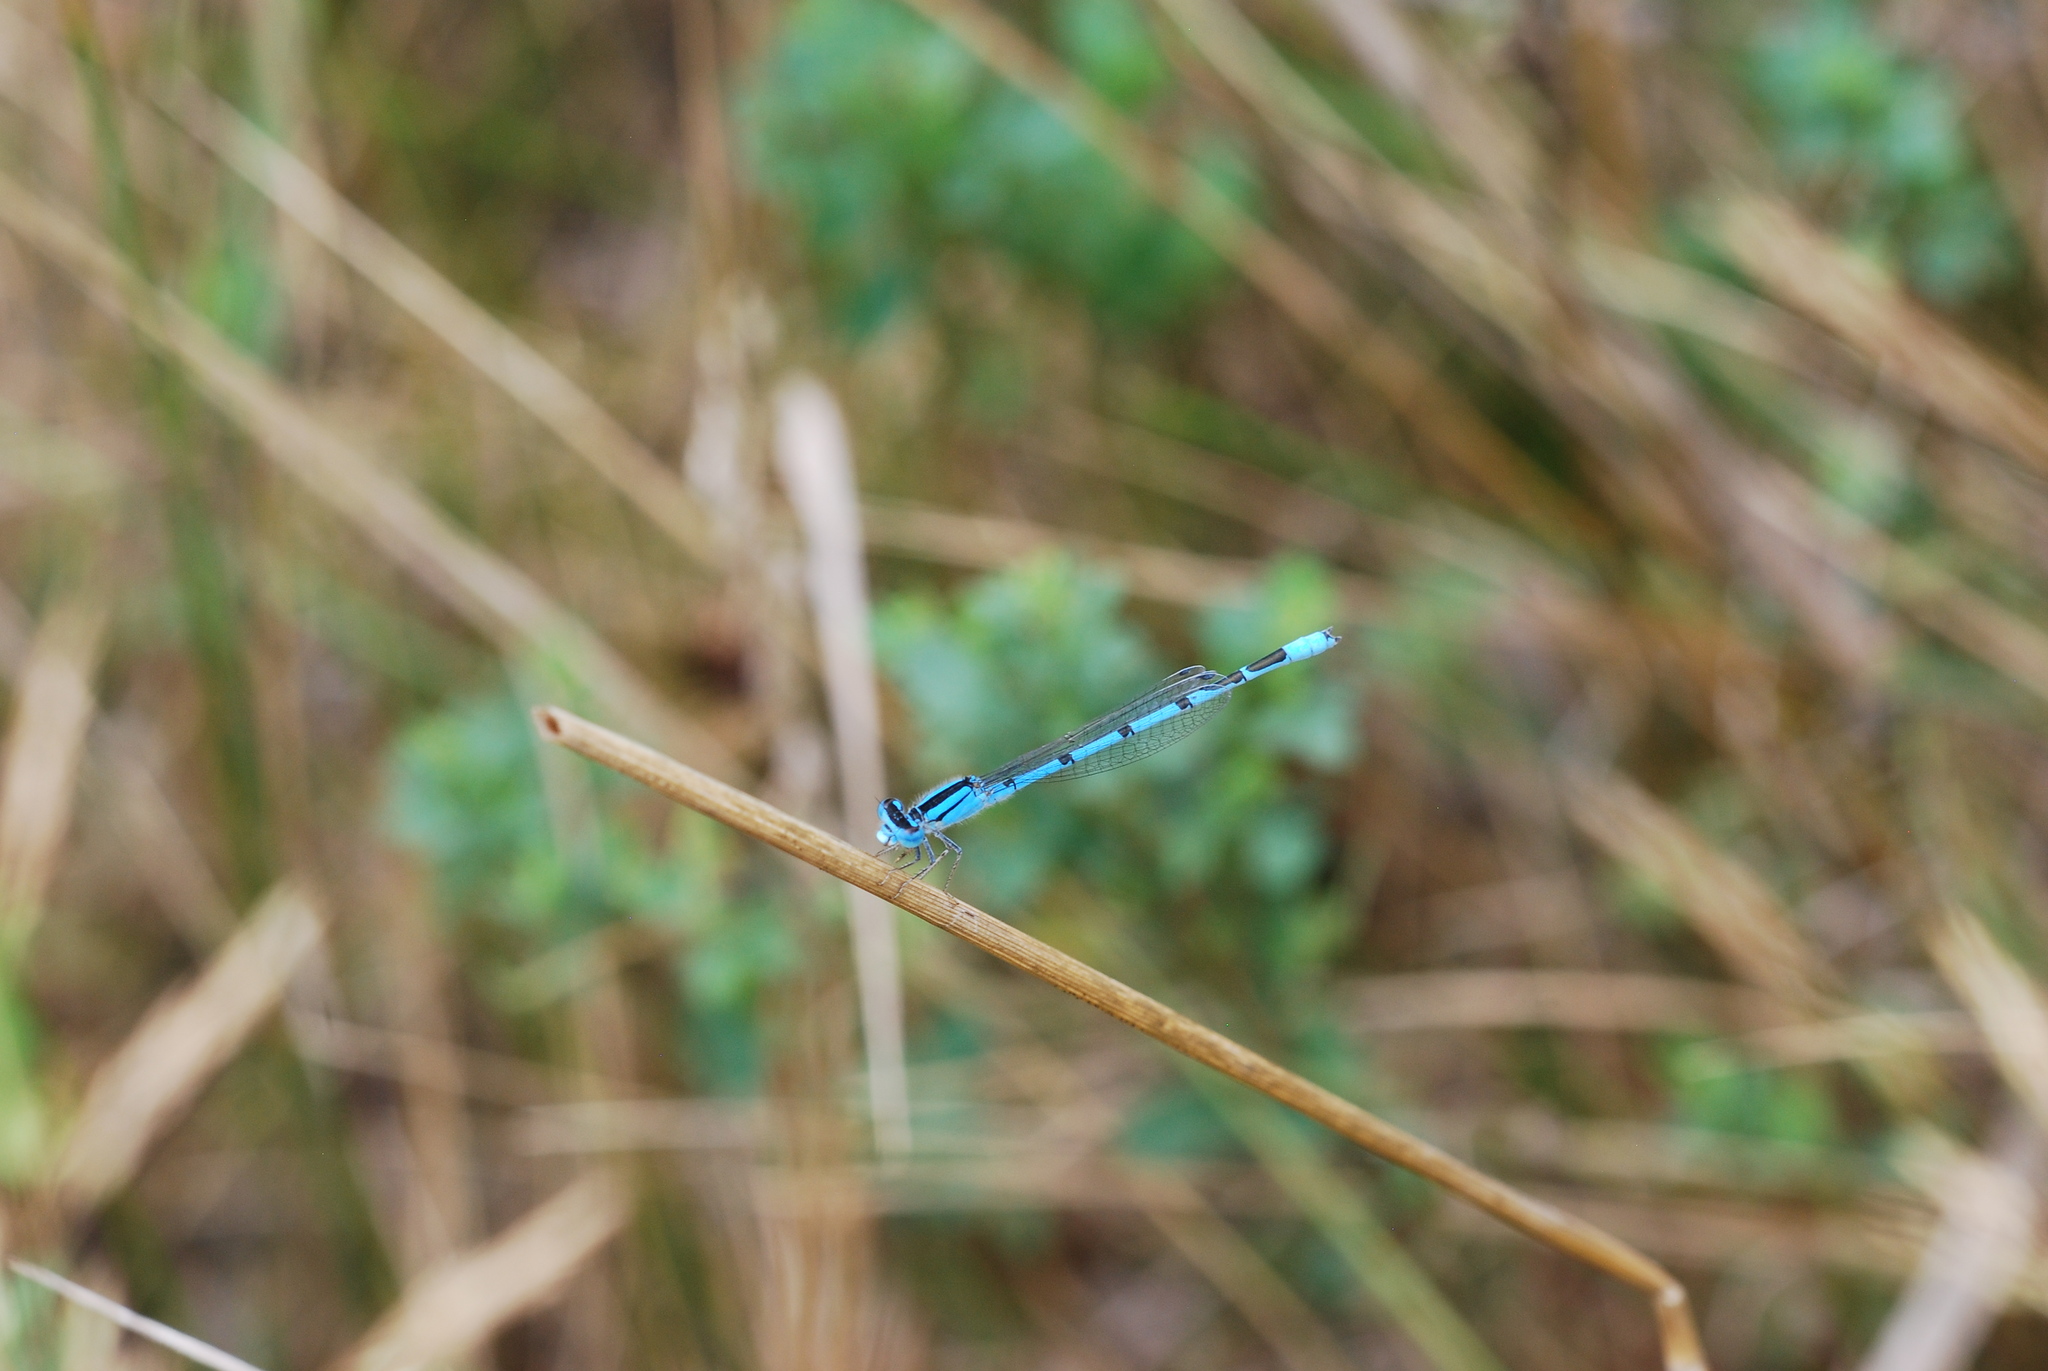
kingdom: Animalia
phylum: Arthropoda
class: Insecta
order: Odonata
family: Coenagrionidae
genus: Enallagma
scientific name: Enallagma civile
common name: Damselfly
